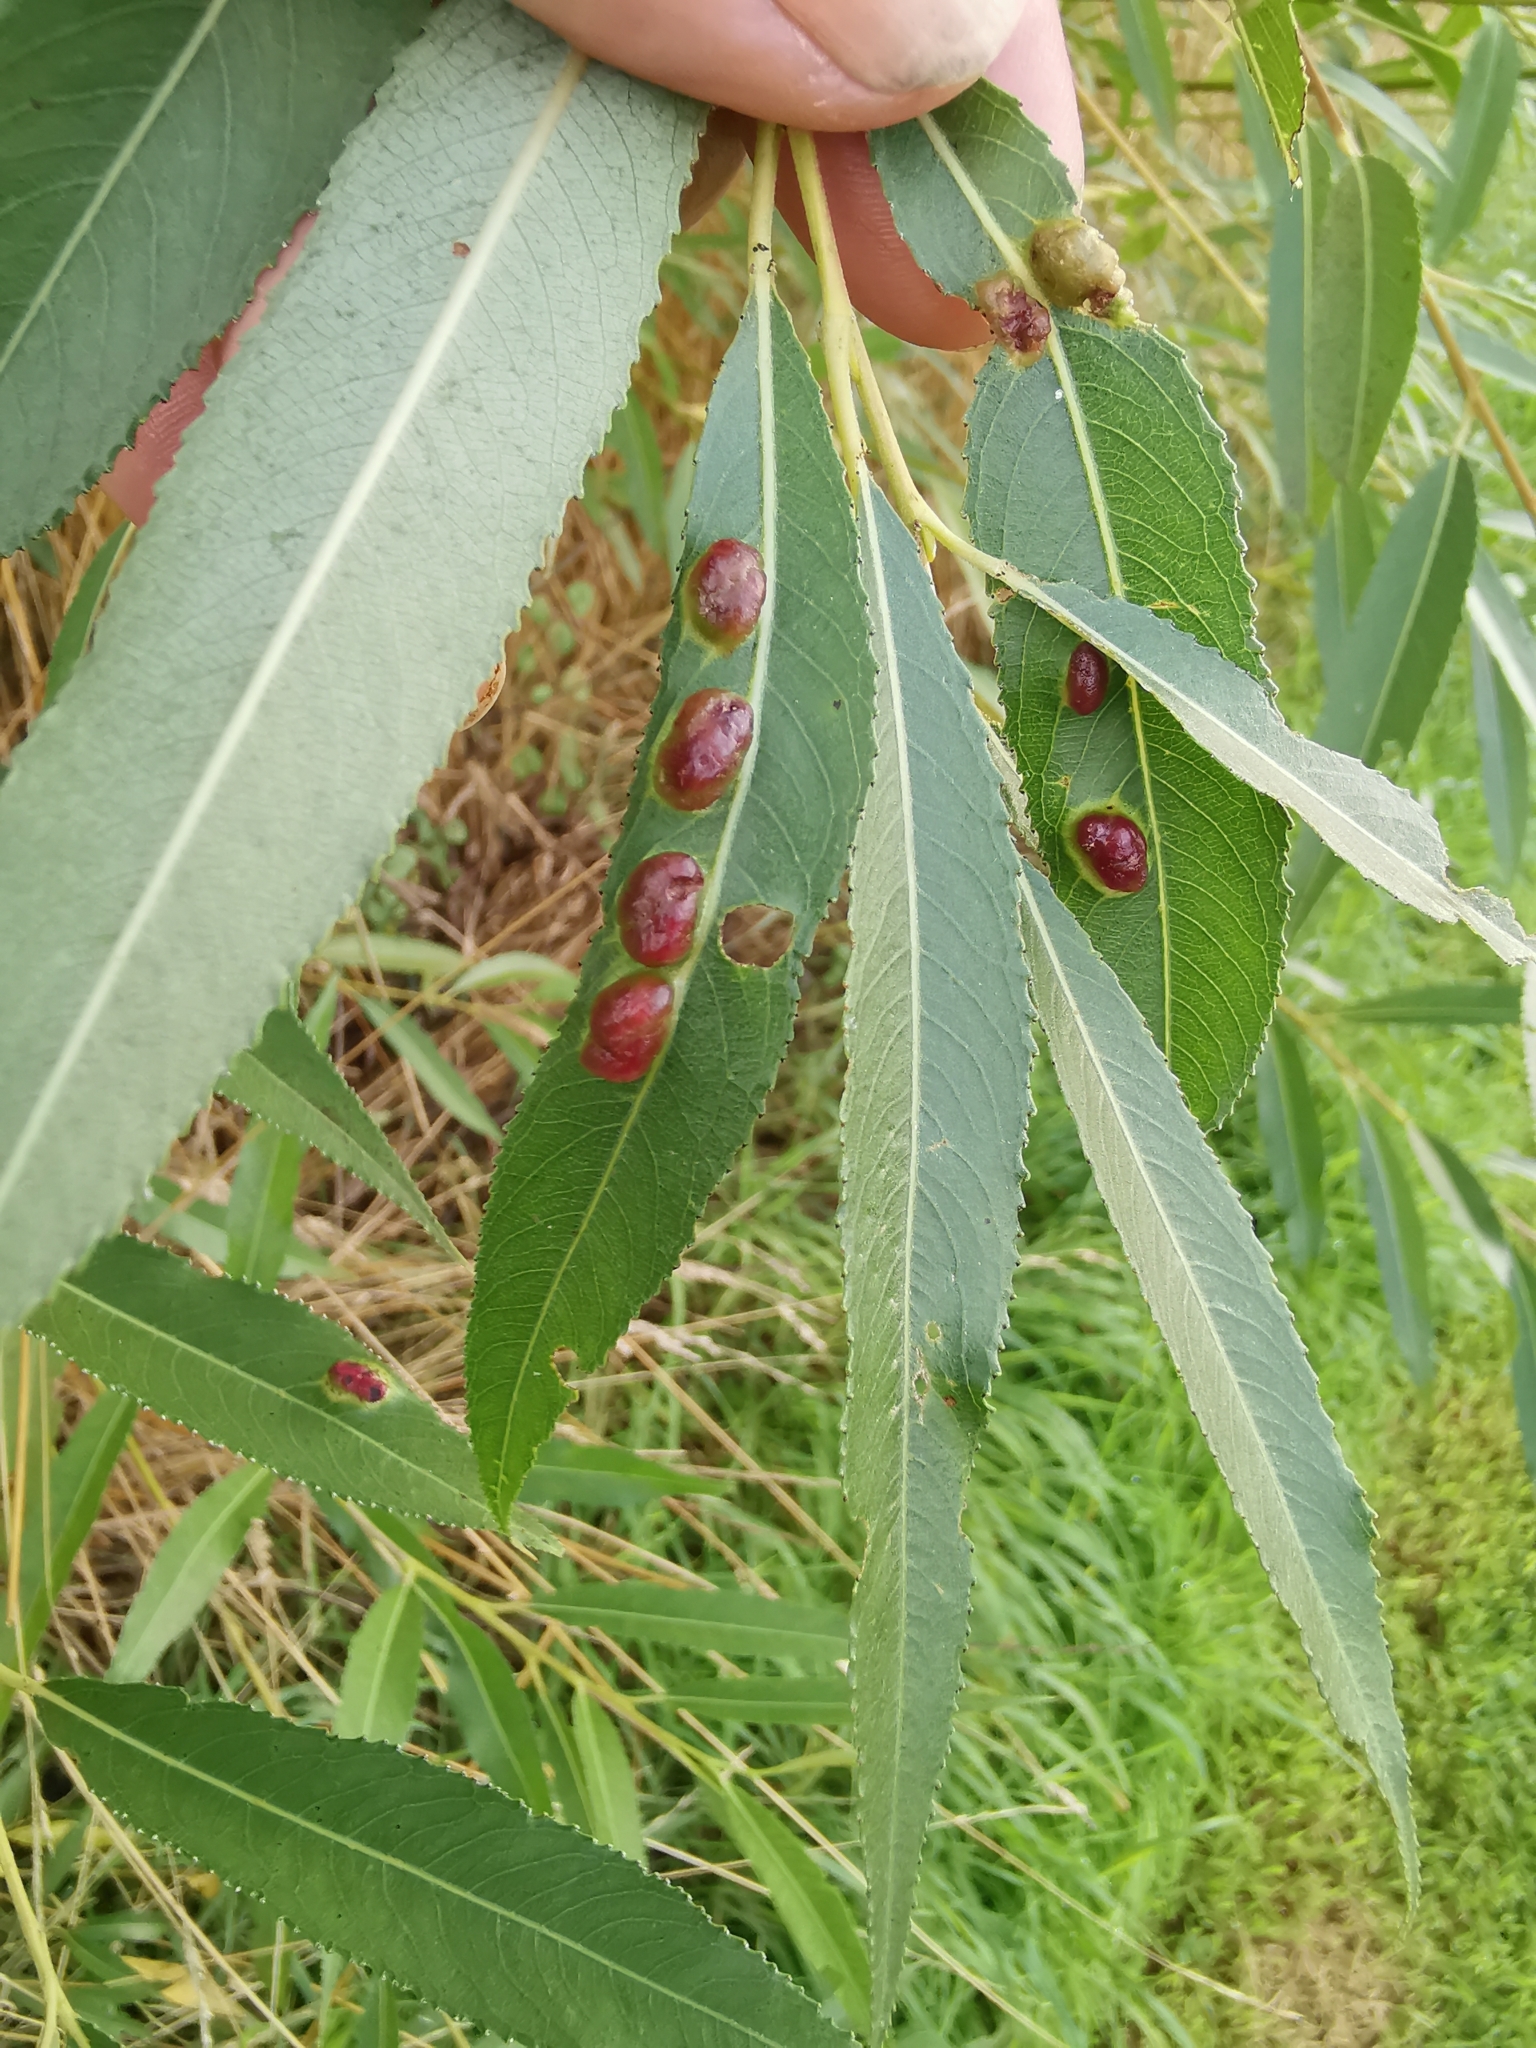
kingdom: Animalia
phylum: Arthropoda
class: Insecta
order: Hymenoptera
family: Tenthredinidae
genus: Pontania
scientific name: Pontania proxima
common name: Common sawfly
